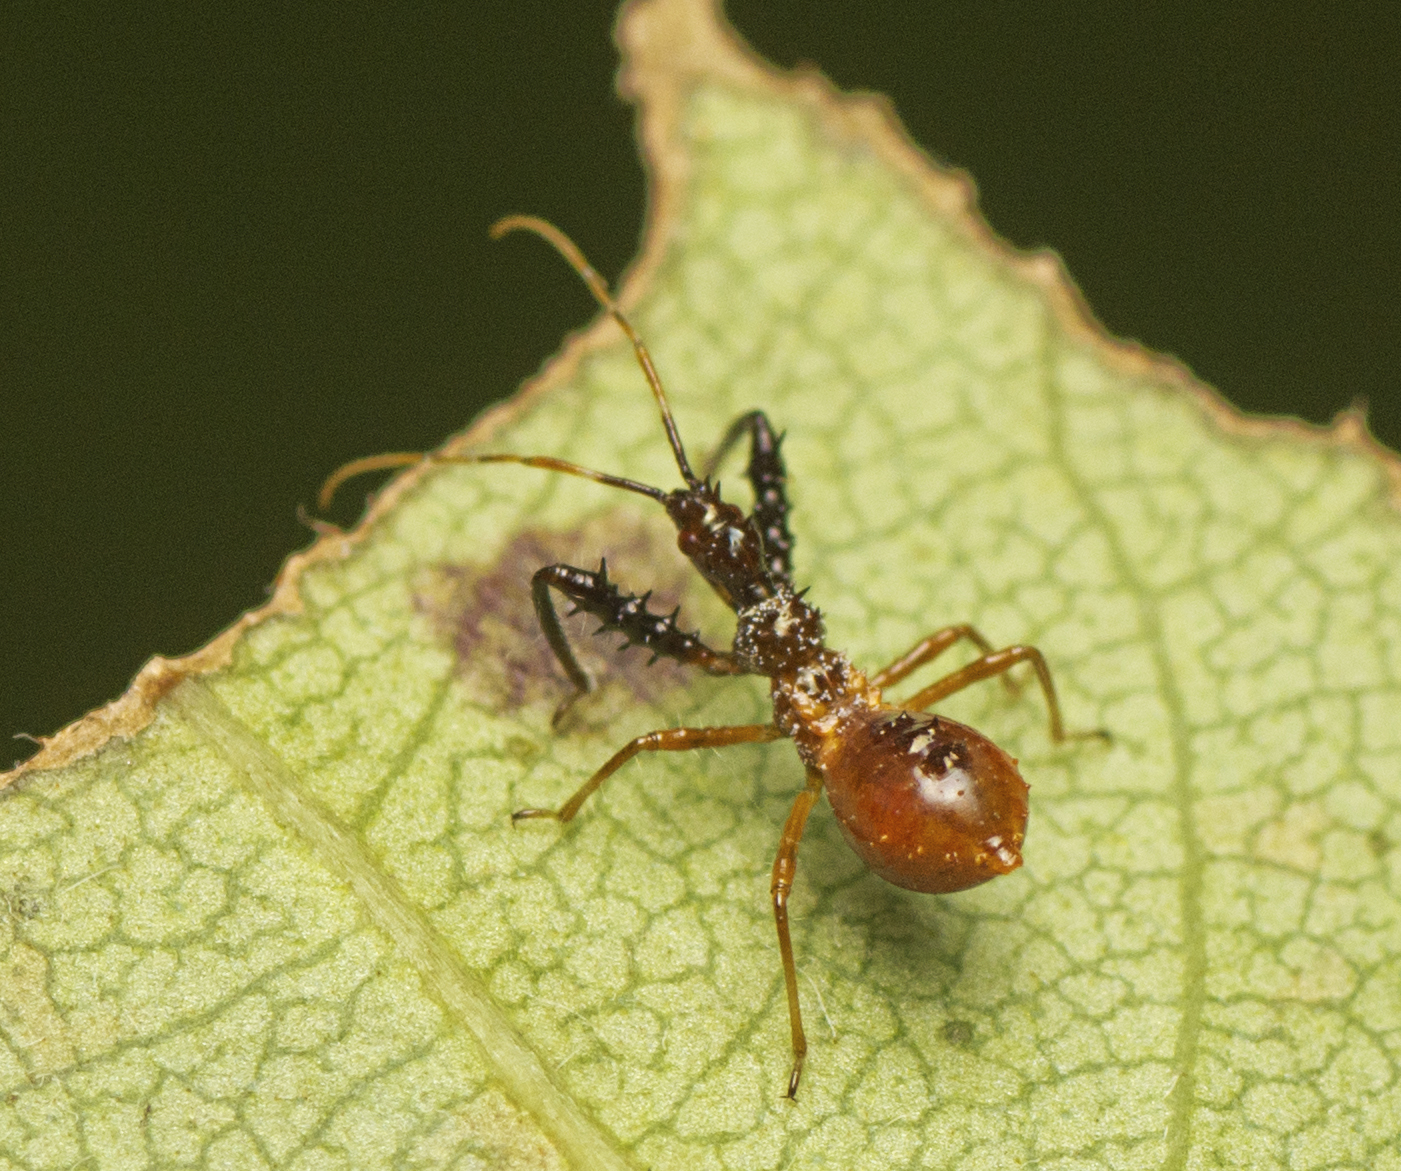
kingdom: Animalia
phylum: Arthropoda
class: Insecta
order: Hemiptera
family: Reduviidae
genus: Scipinia
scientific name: Scipinia arenacea
